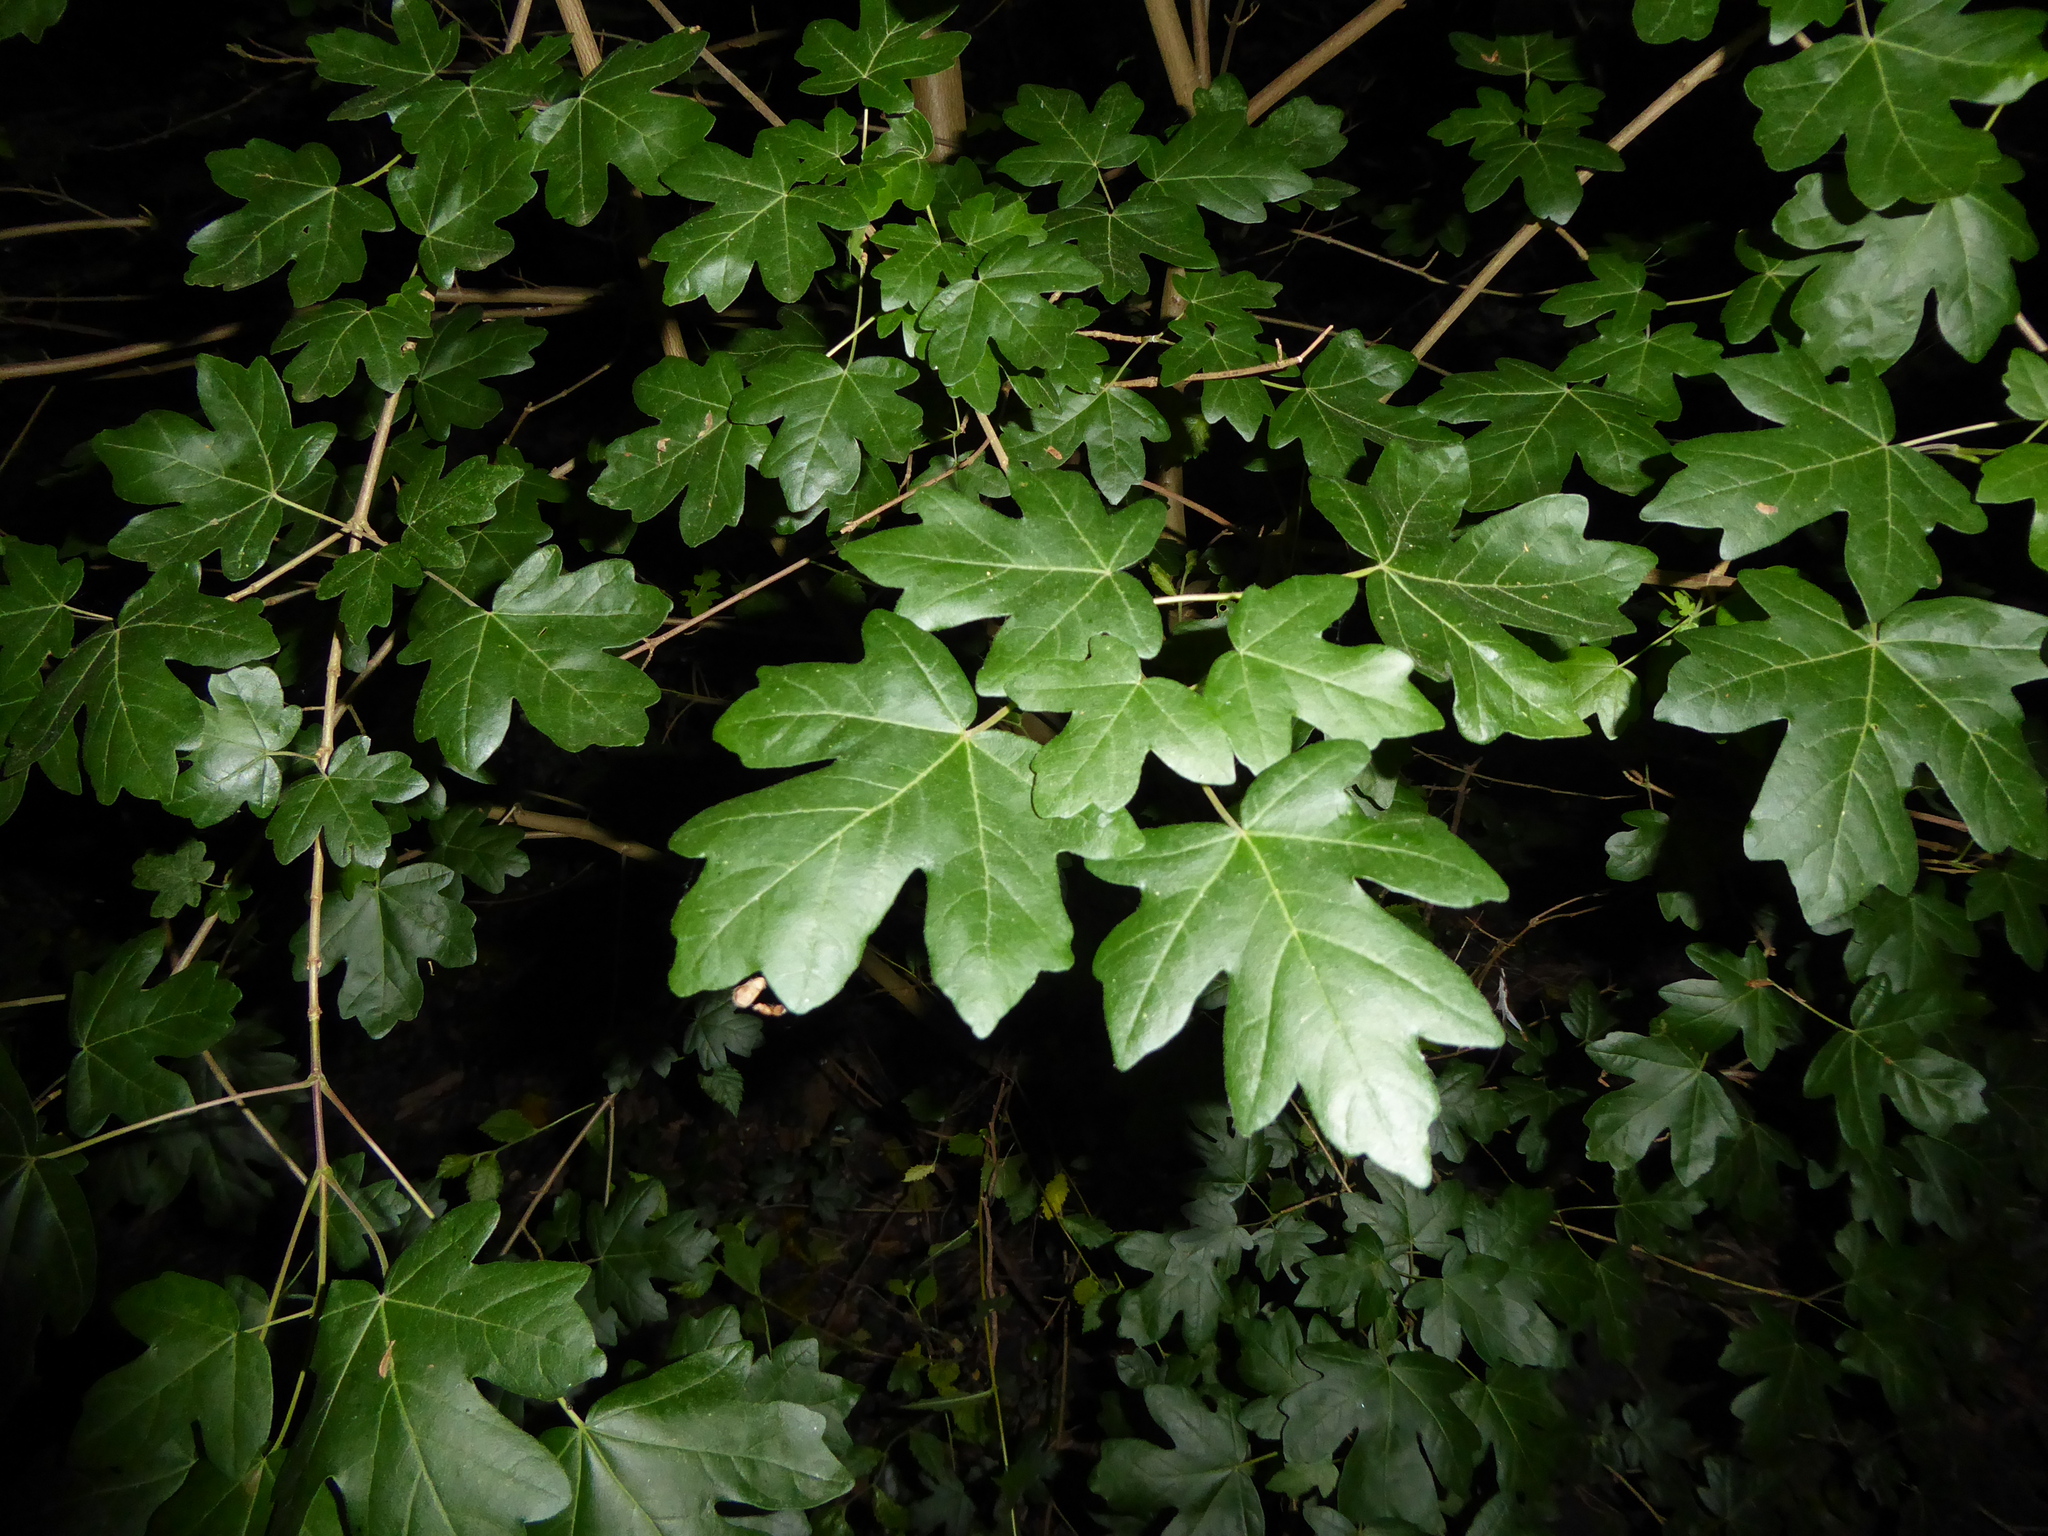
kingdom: Plantae
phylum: Tracheophyta
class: Magnoliopsida
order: Sapindales
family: Sapindaceae
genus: Acer
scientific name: Acer campestre
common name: Field maple
